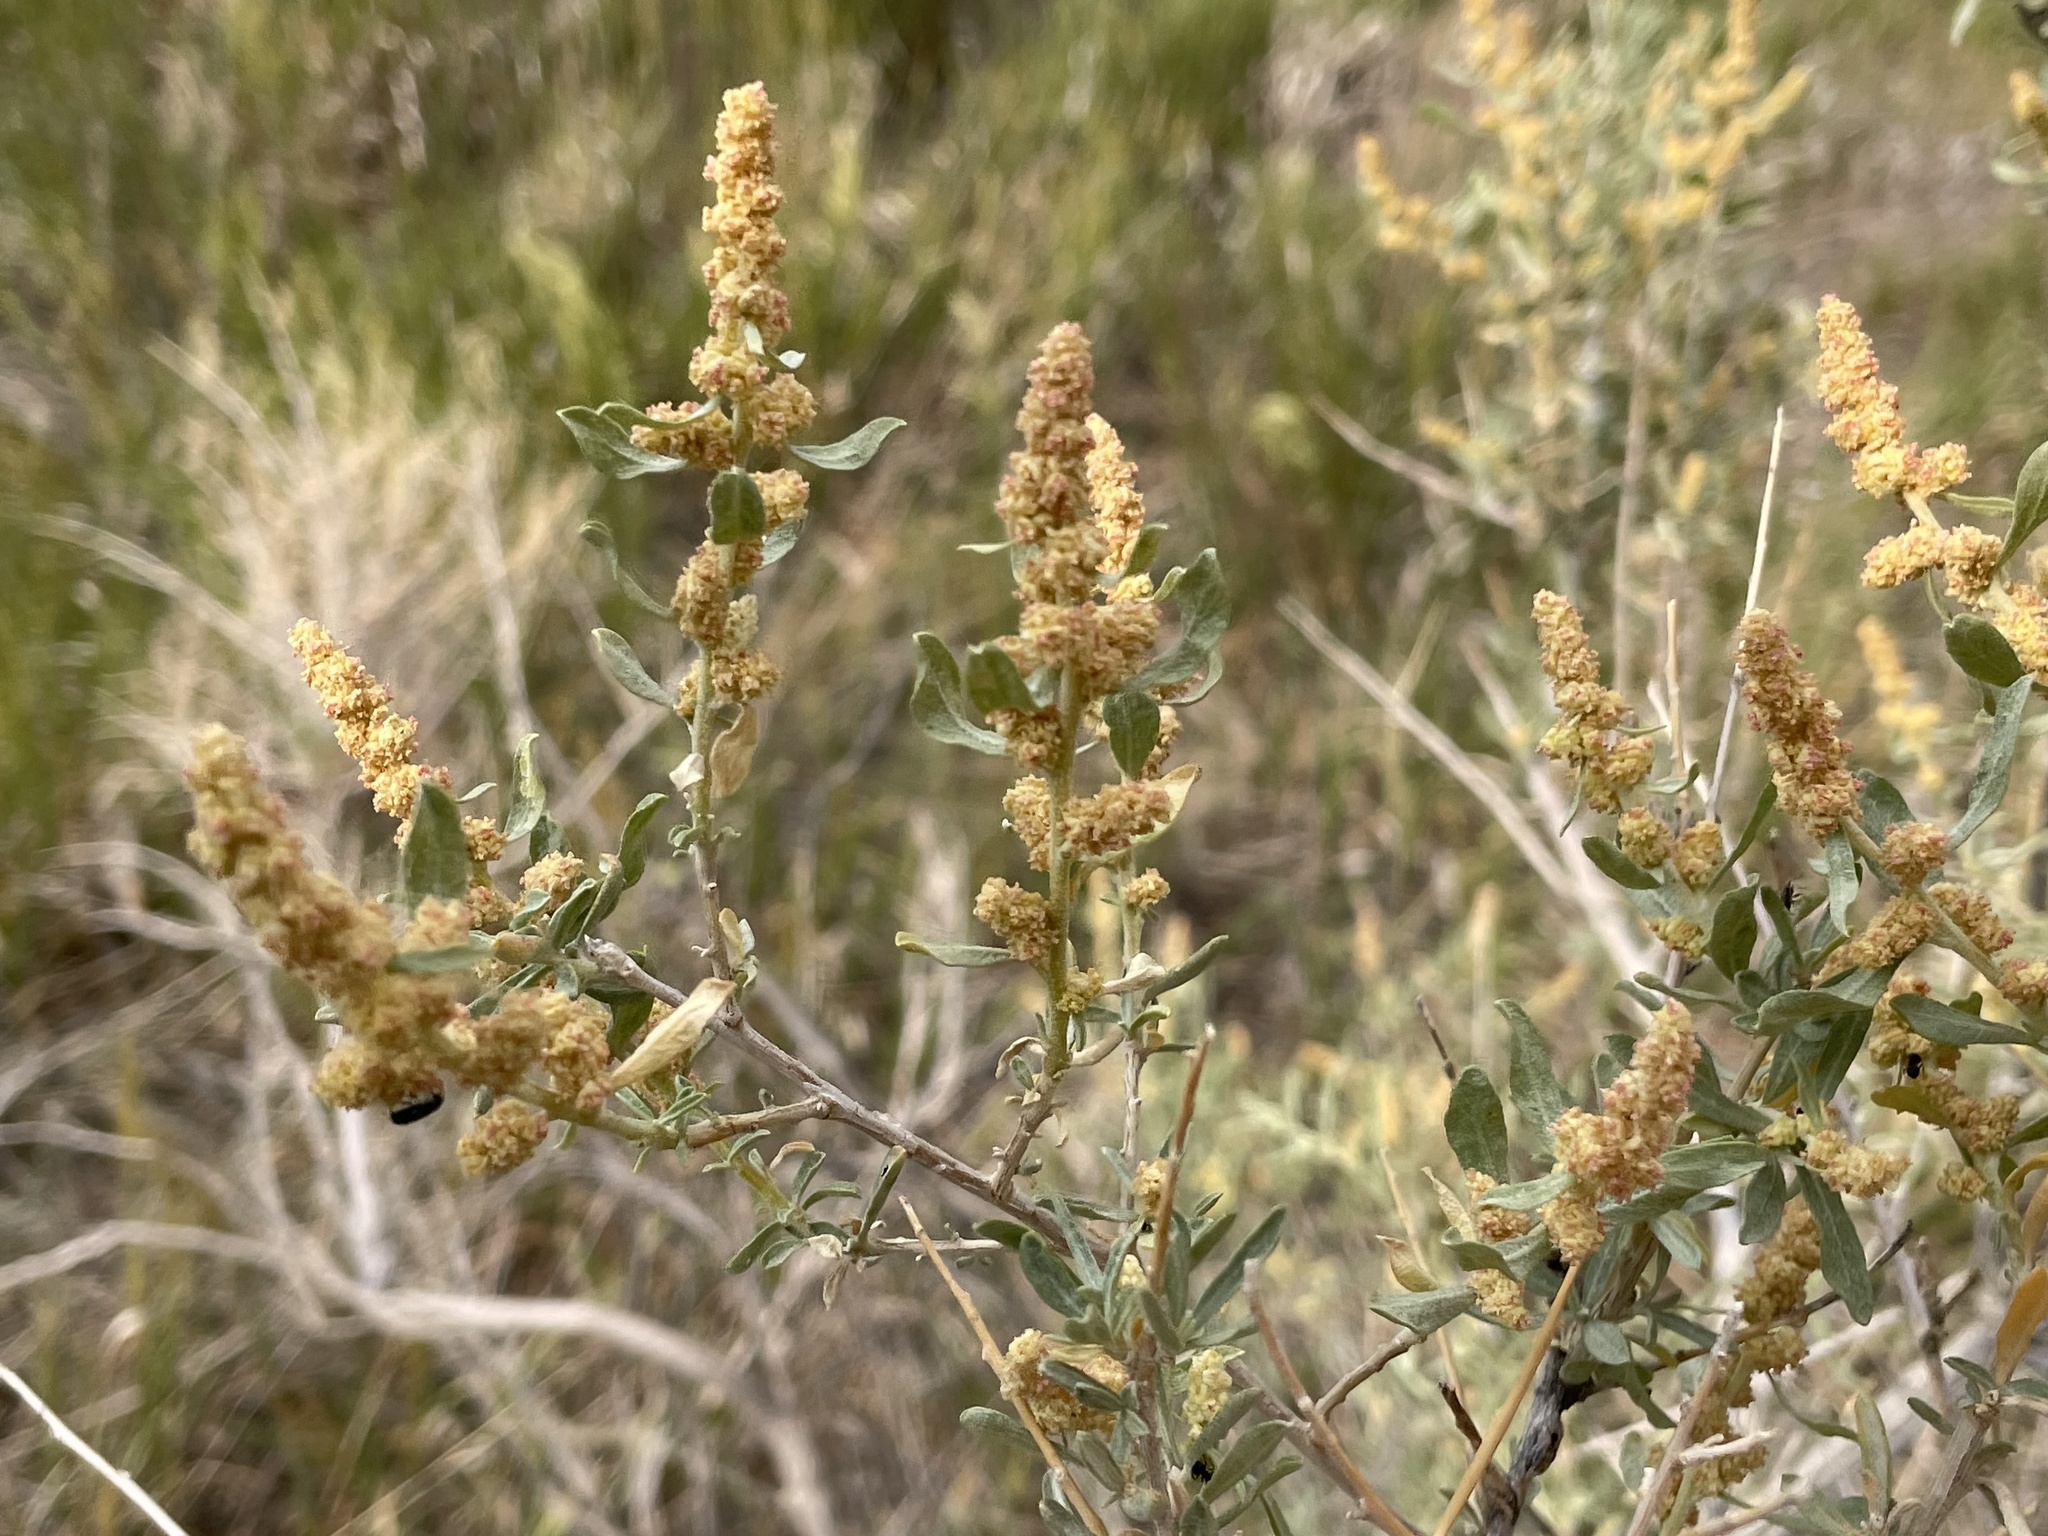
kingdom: Plantae
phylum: Tracheophyta
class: Magnoliopsida
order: Caryophyllales
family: Amaranthaceae
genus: Atriplex
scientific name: Atriplex canescens
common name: Four-wing saltbush
